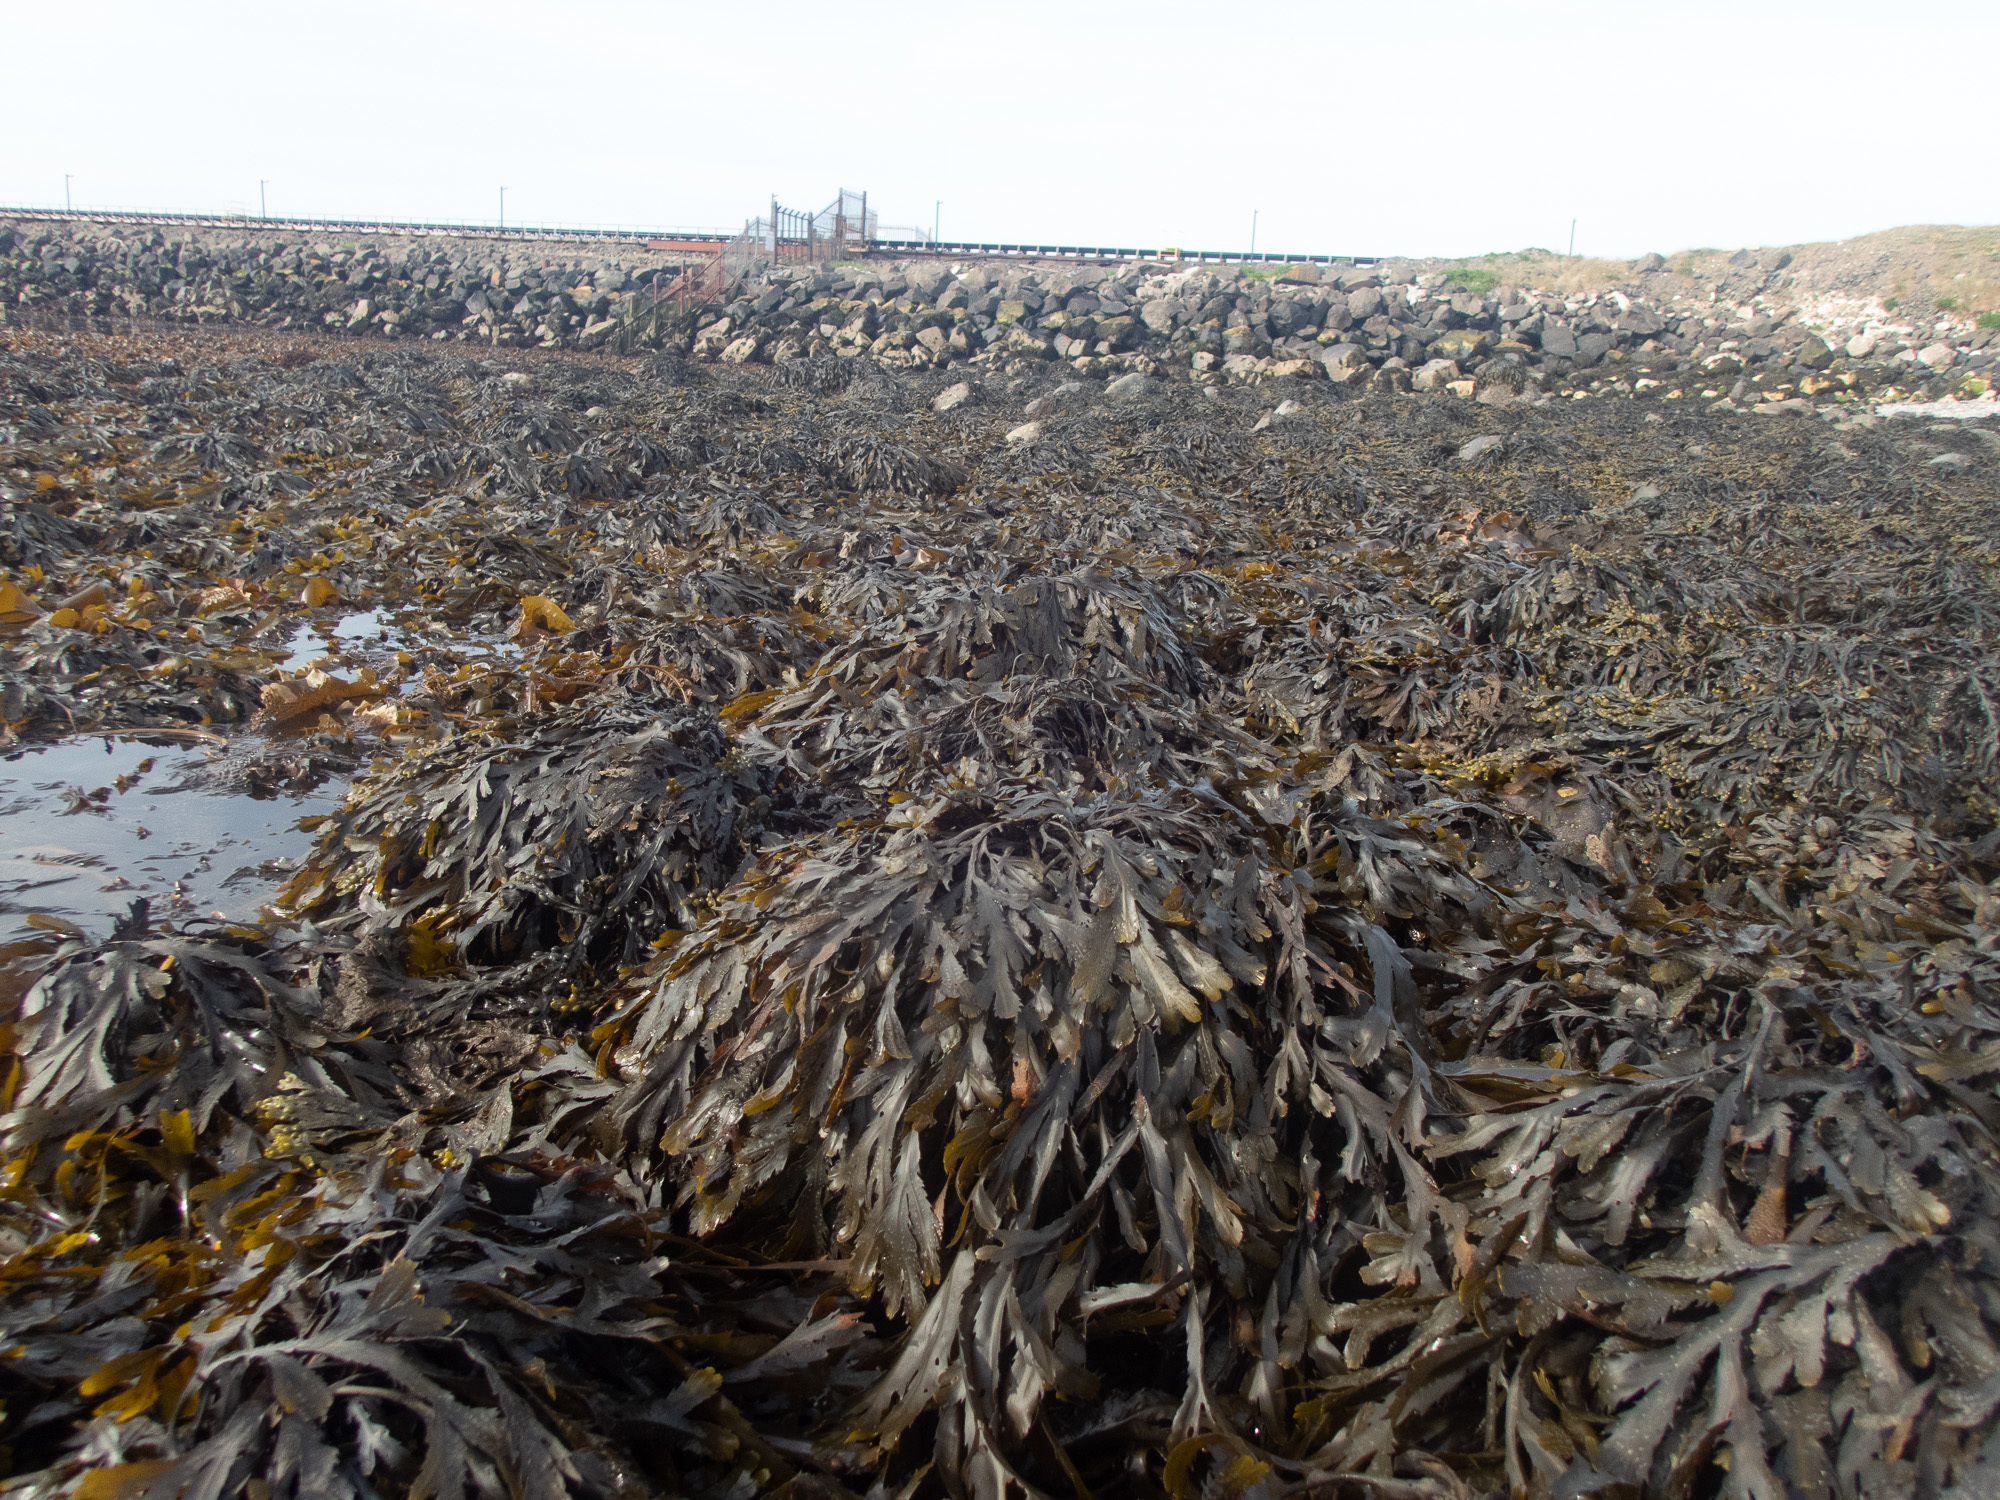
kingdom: Chromista
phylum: Ochrophyta
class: Phaeophyceae
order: Fucales
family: Fucaceae
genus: Fucus
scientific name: Fucus serratus
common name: Toothed wrack
